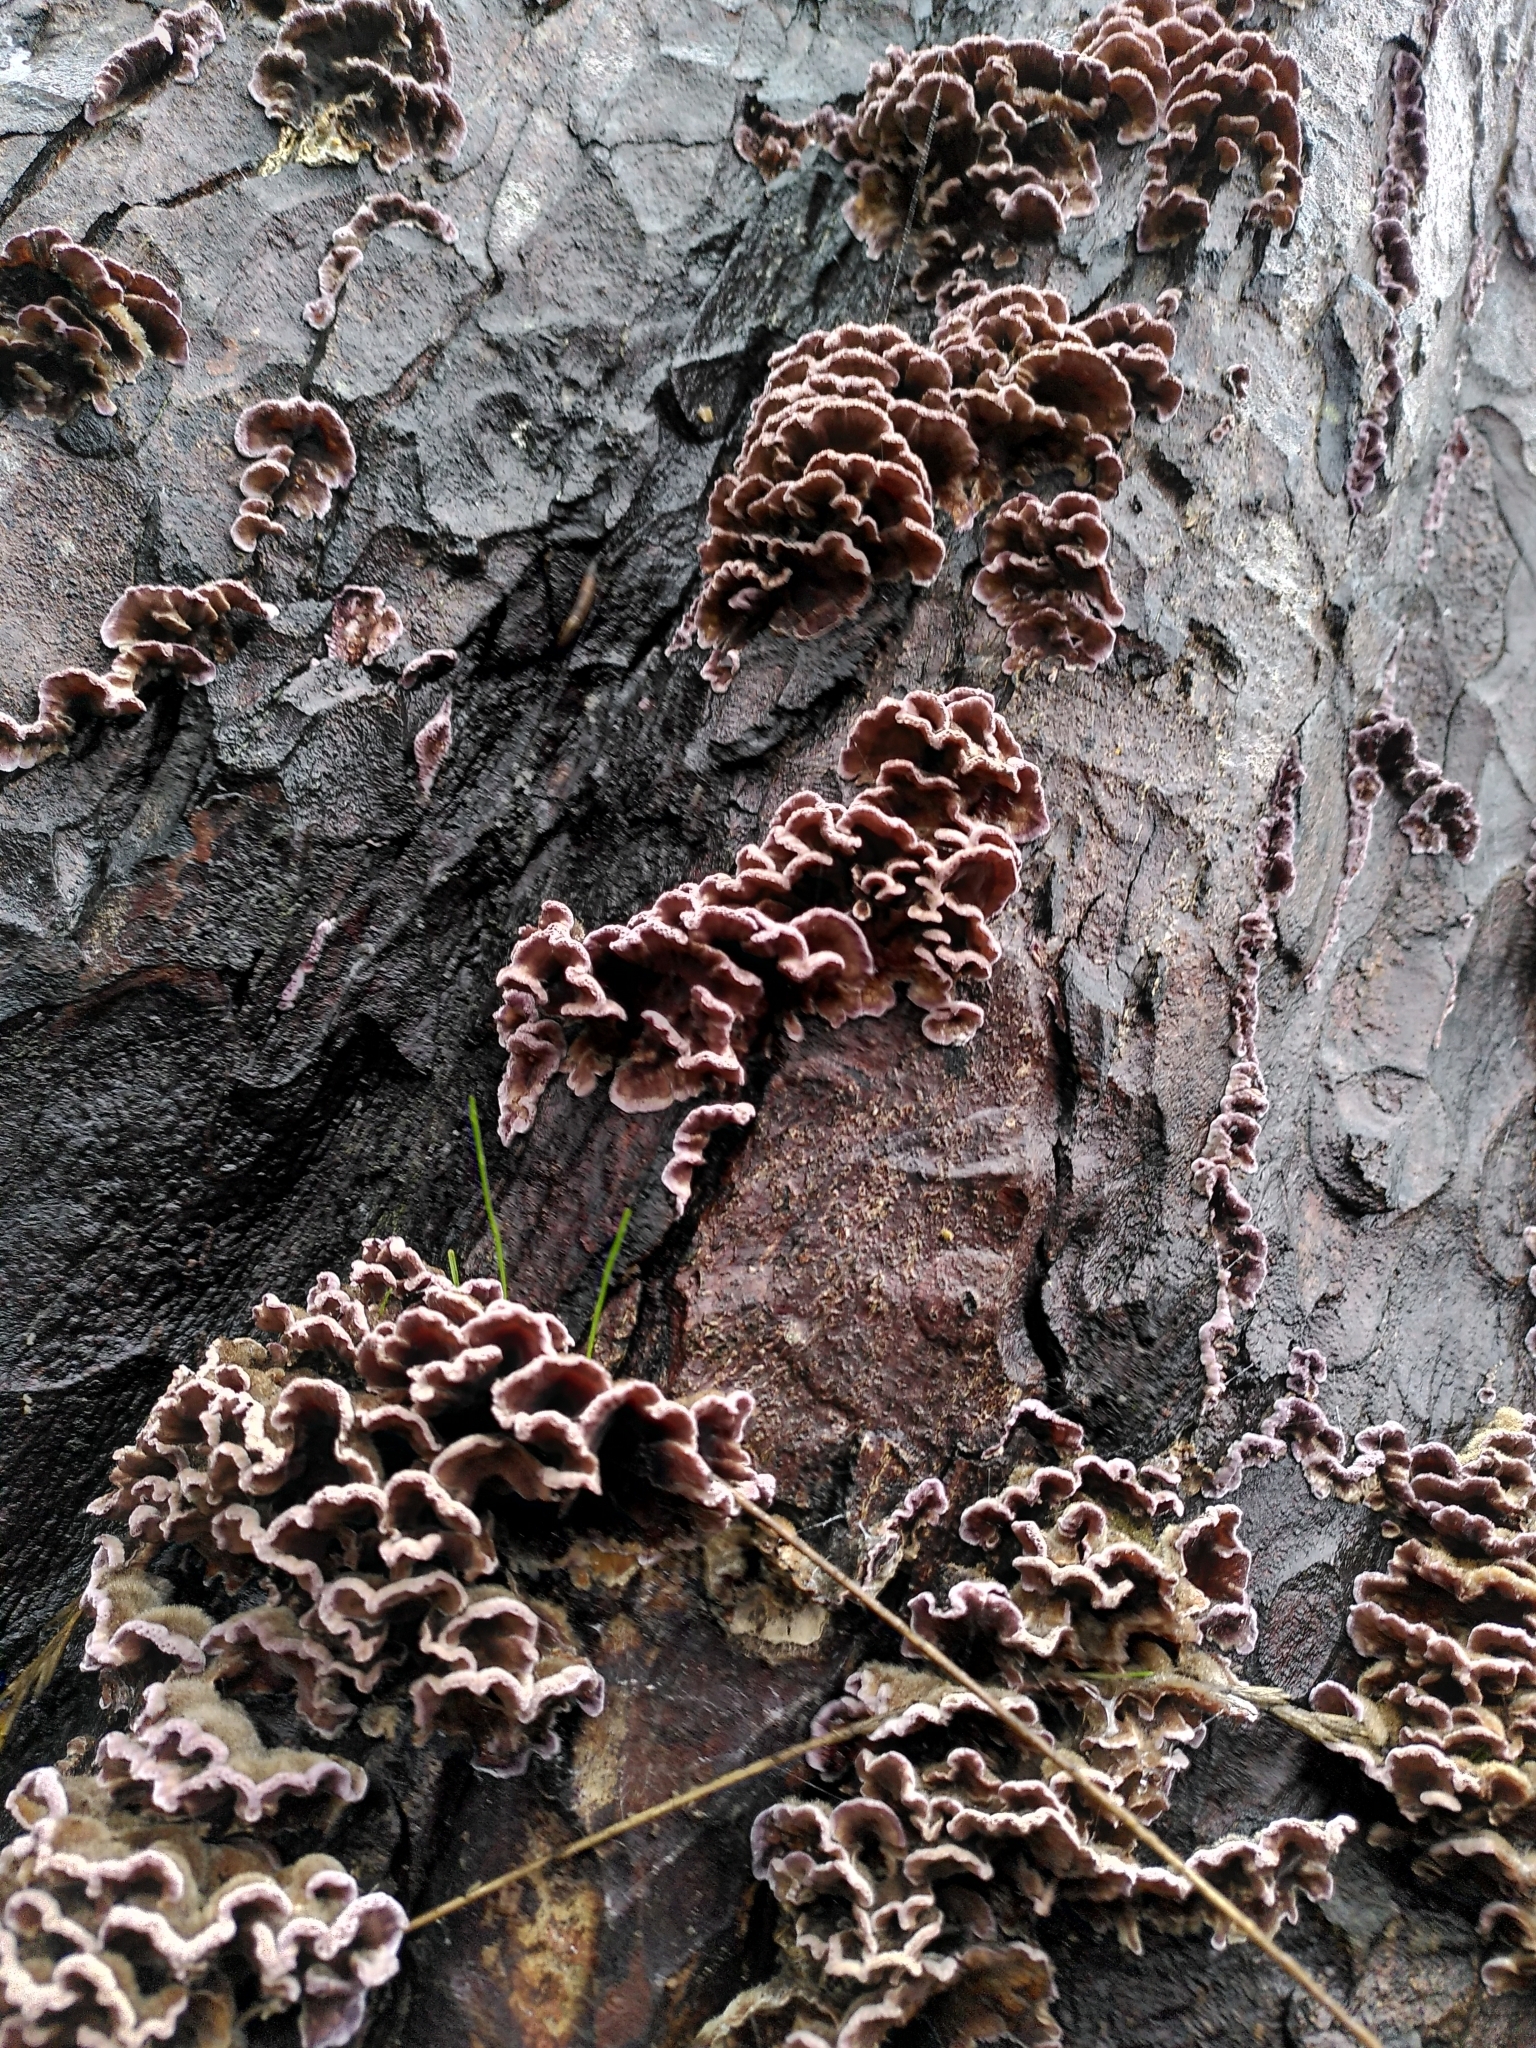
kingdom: Fungi
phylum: Basidiomycota
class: Agaricomycetes
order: Agaricales
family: Cyphellaceae
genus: Chondrostereum
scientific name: Chondrostereum purpureum
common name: Silver leaf disease
